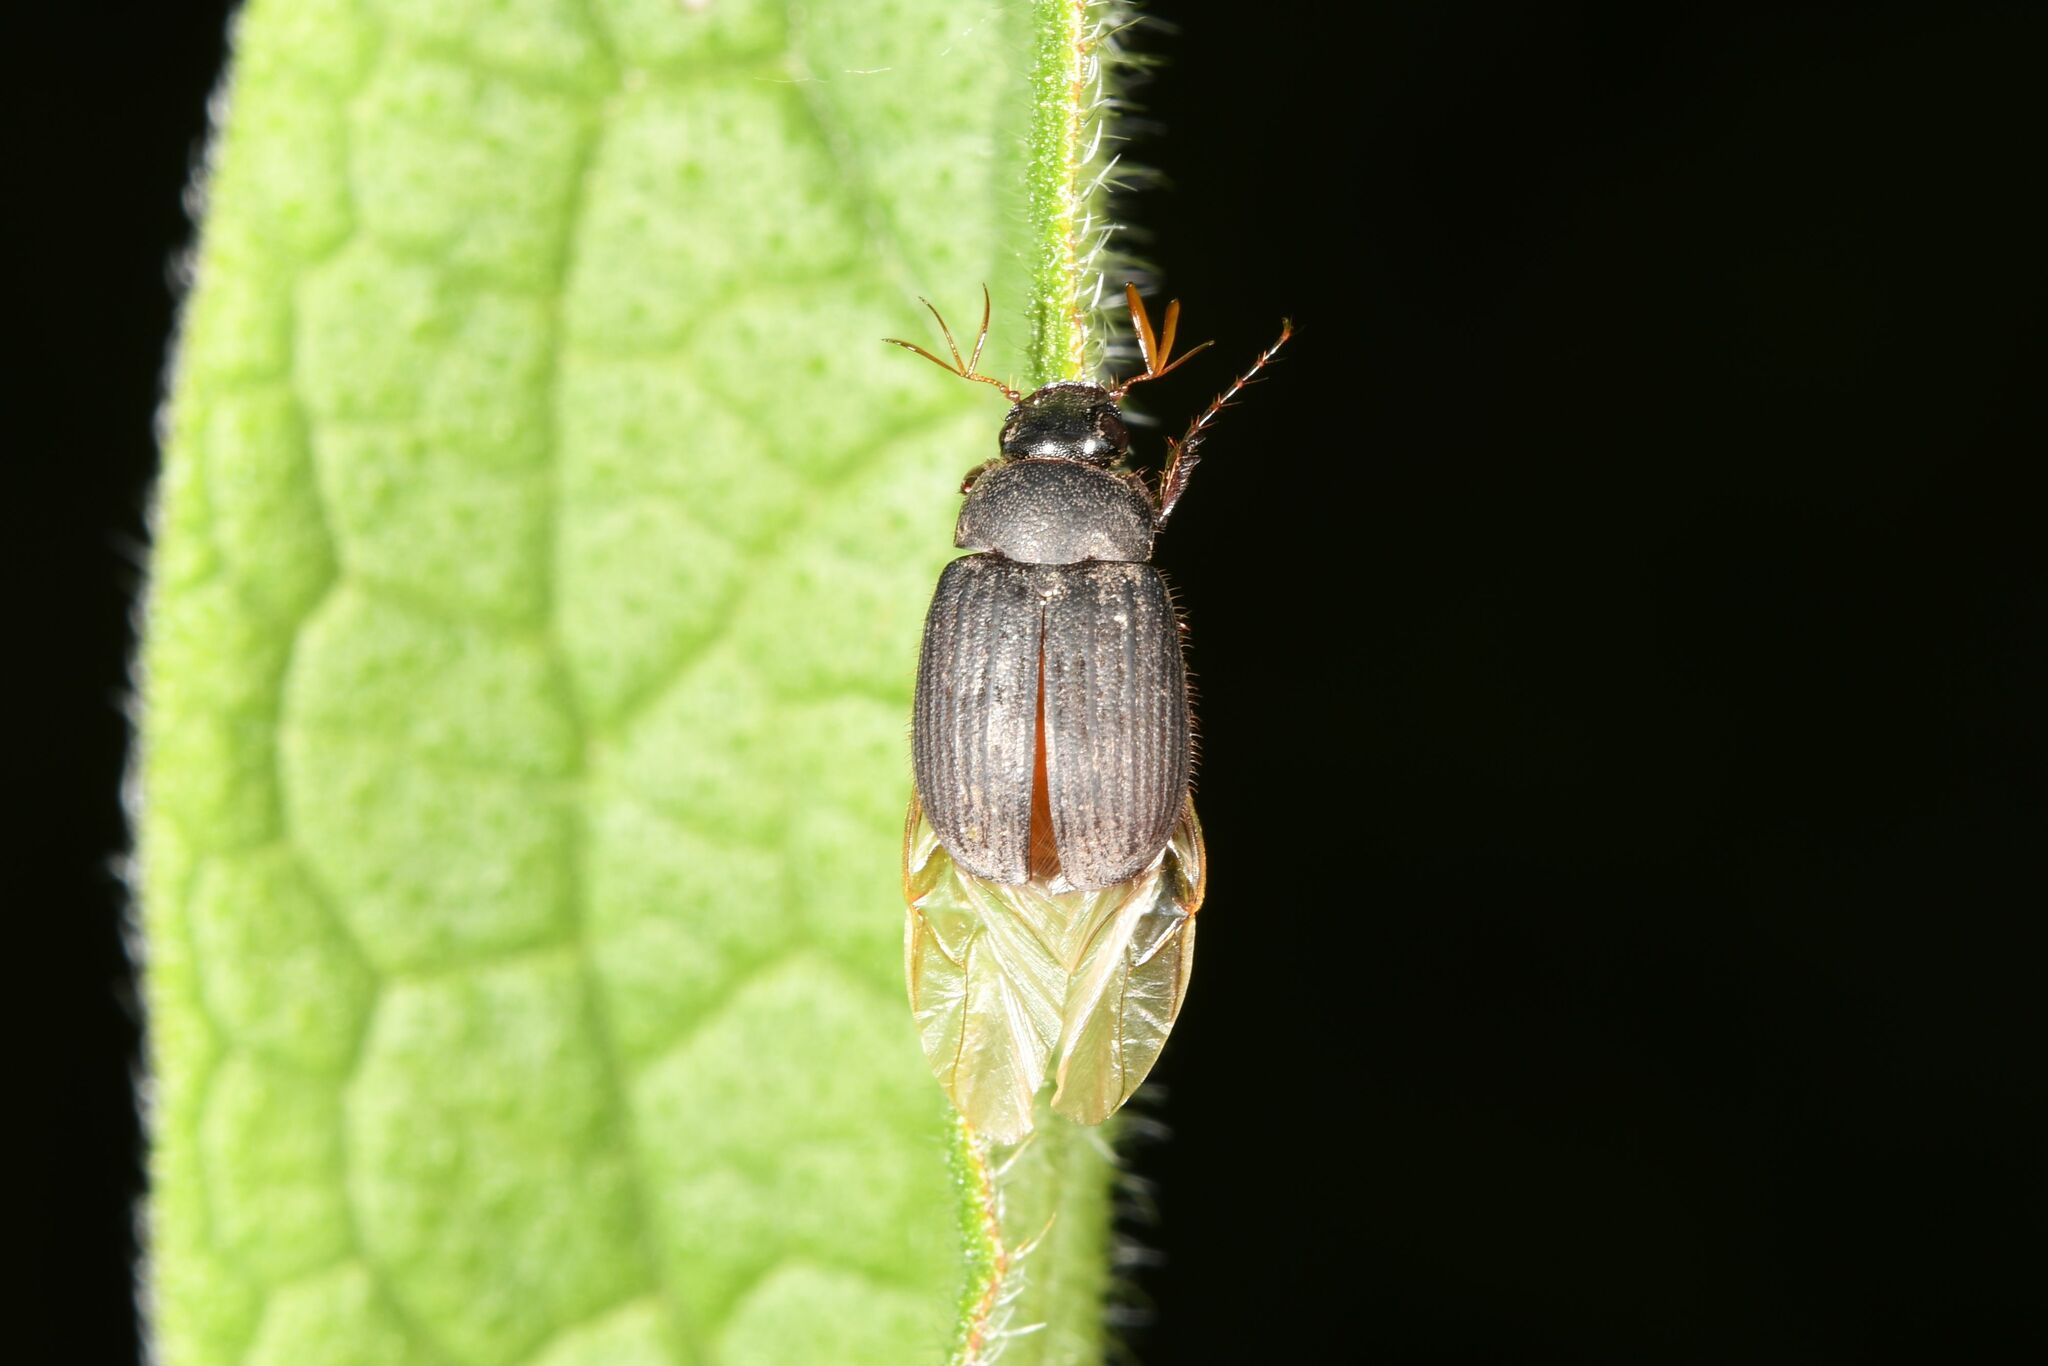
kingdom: Animalia
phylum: Arthropoda
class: Insecta
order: Coleoptera
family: Scarabaeidae
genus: Maladera
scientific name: Maladera holosericea
